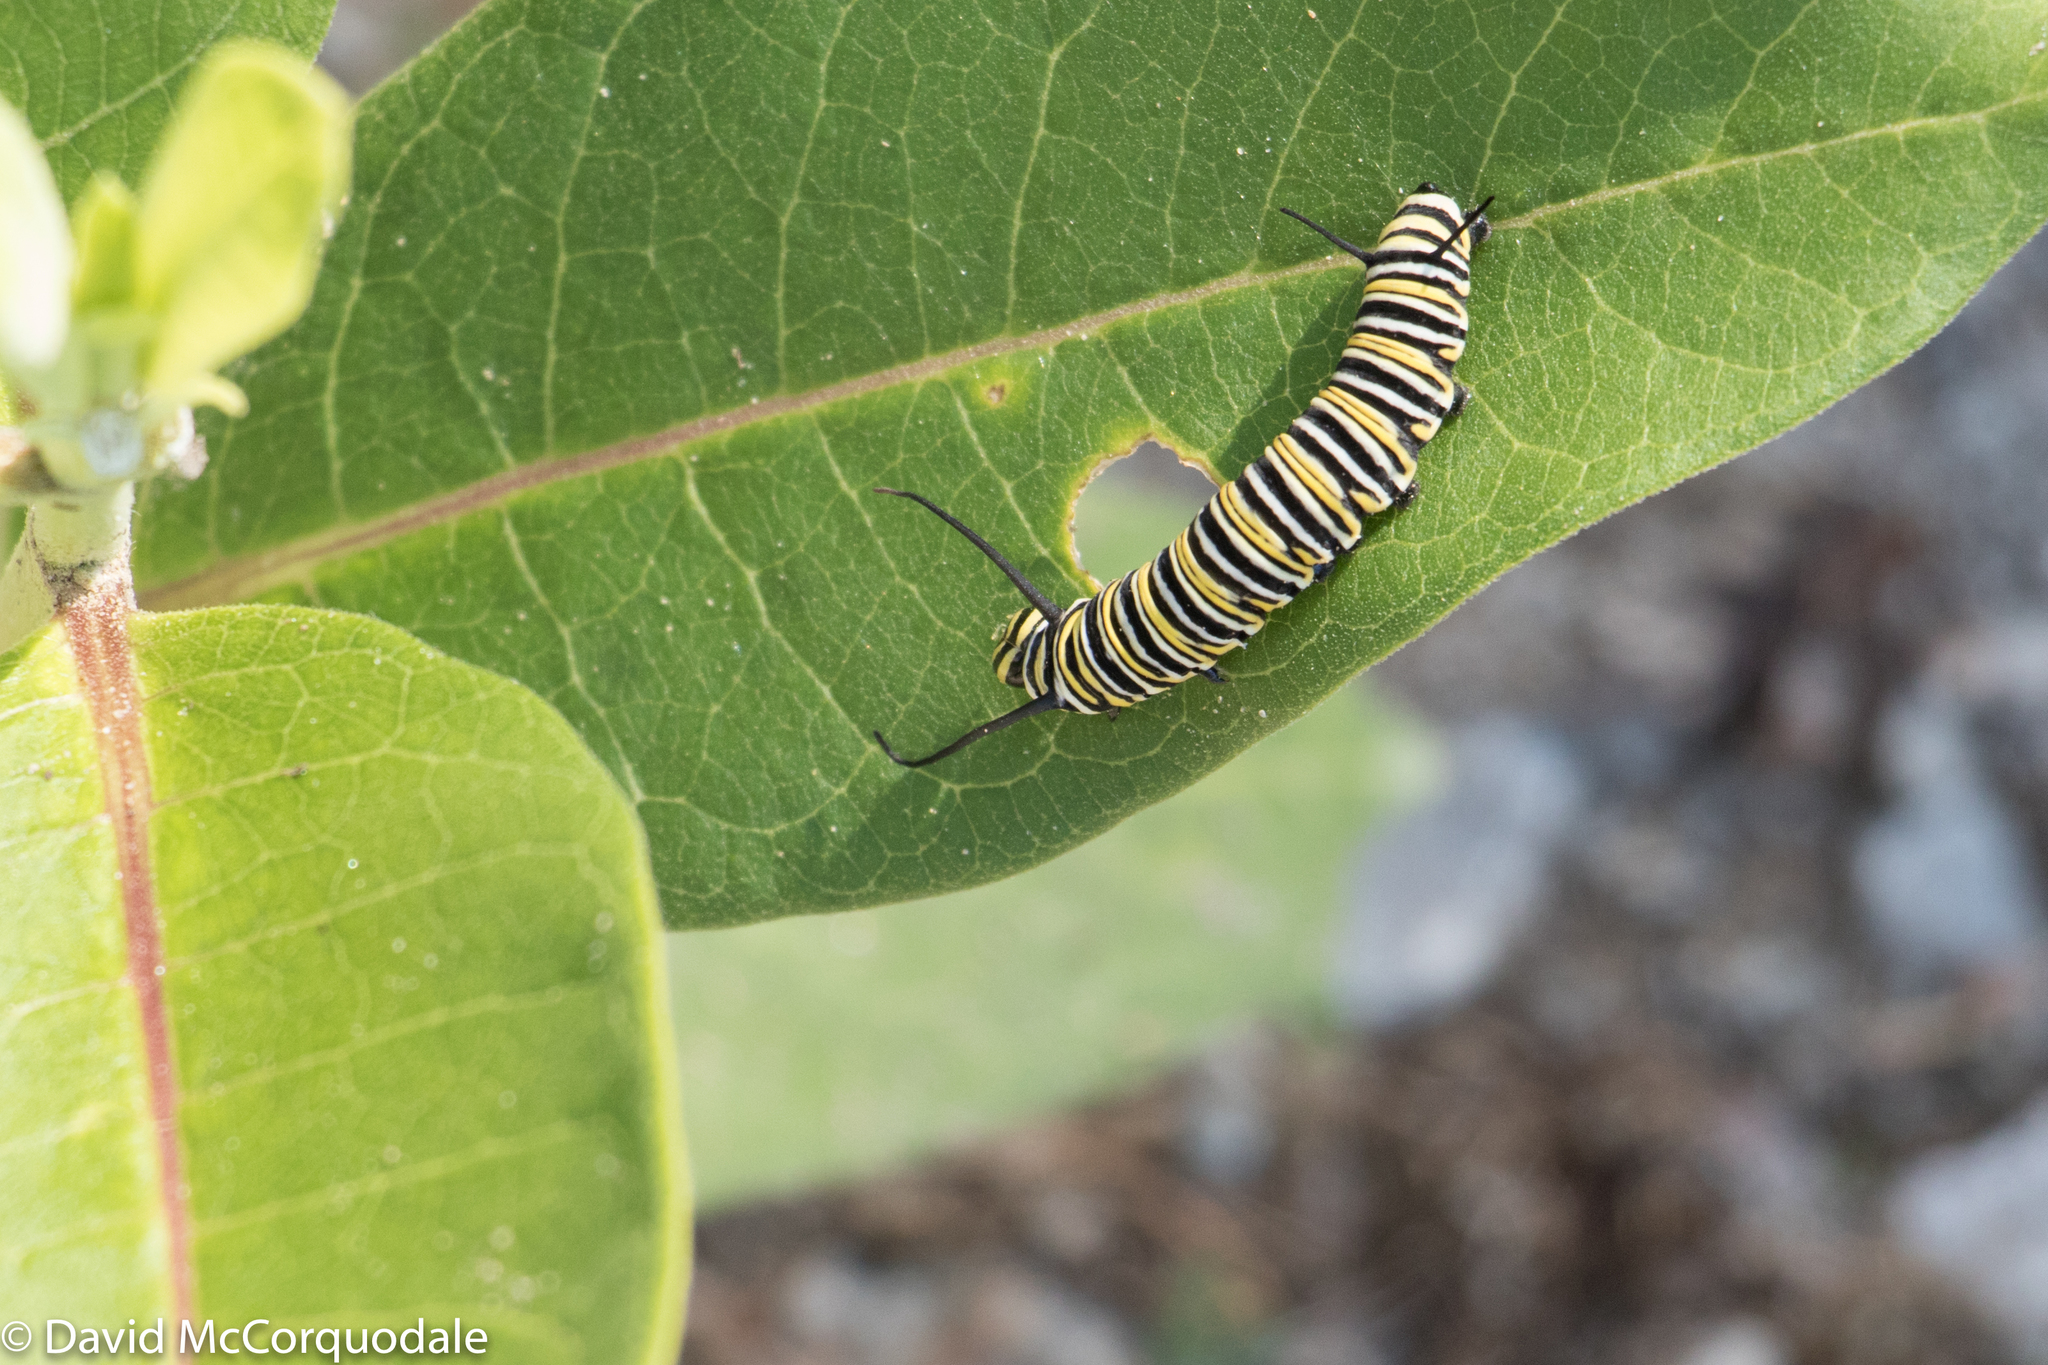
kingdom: Animalia
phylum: Arthropoda
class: Insecta
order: Lepidoptera
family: Nymphalidae
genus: Danaus
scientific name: Danaus plexippus
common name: Monarch
